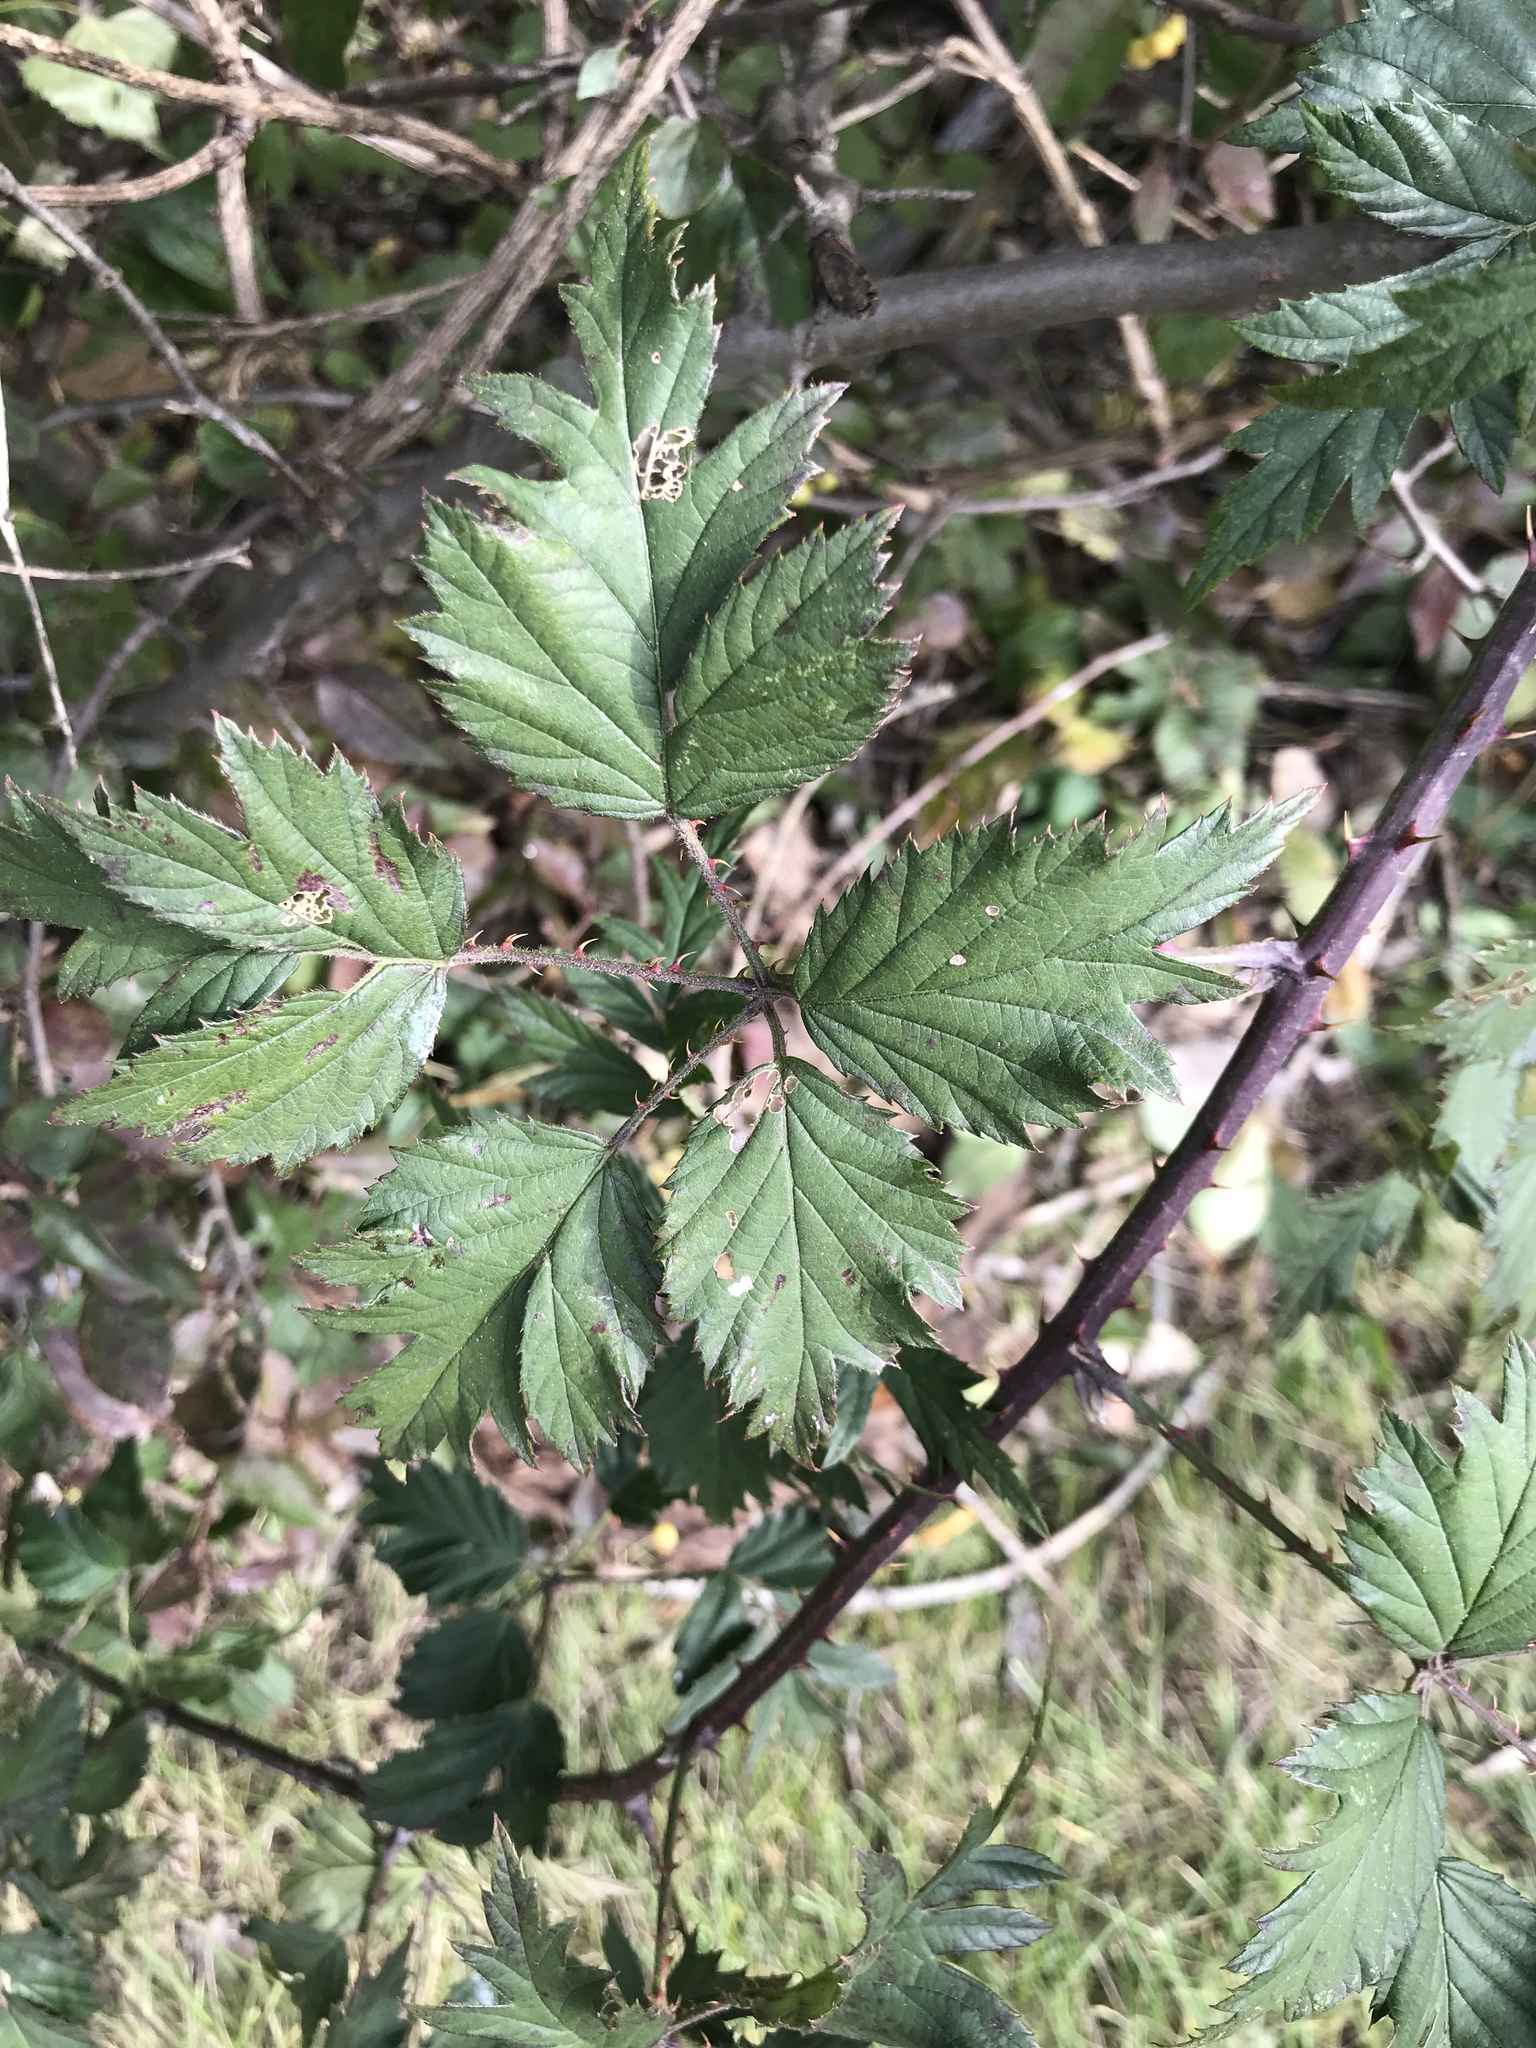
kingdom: Plantae
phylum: Tracheophyta
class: Magnoliopsida
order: Rosales
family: Rosaceae
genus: Rubus
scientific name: Rubus laciniatus
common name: Evergreen blackberry
